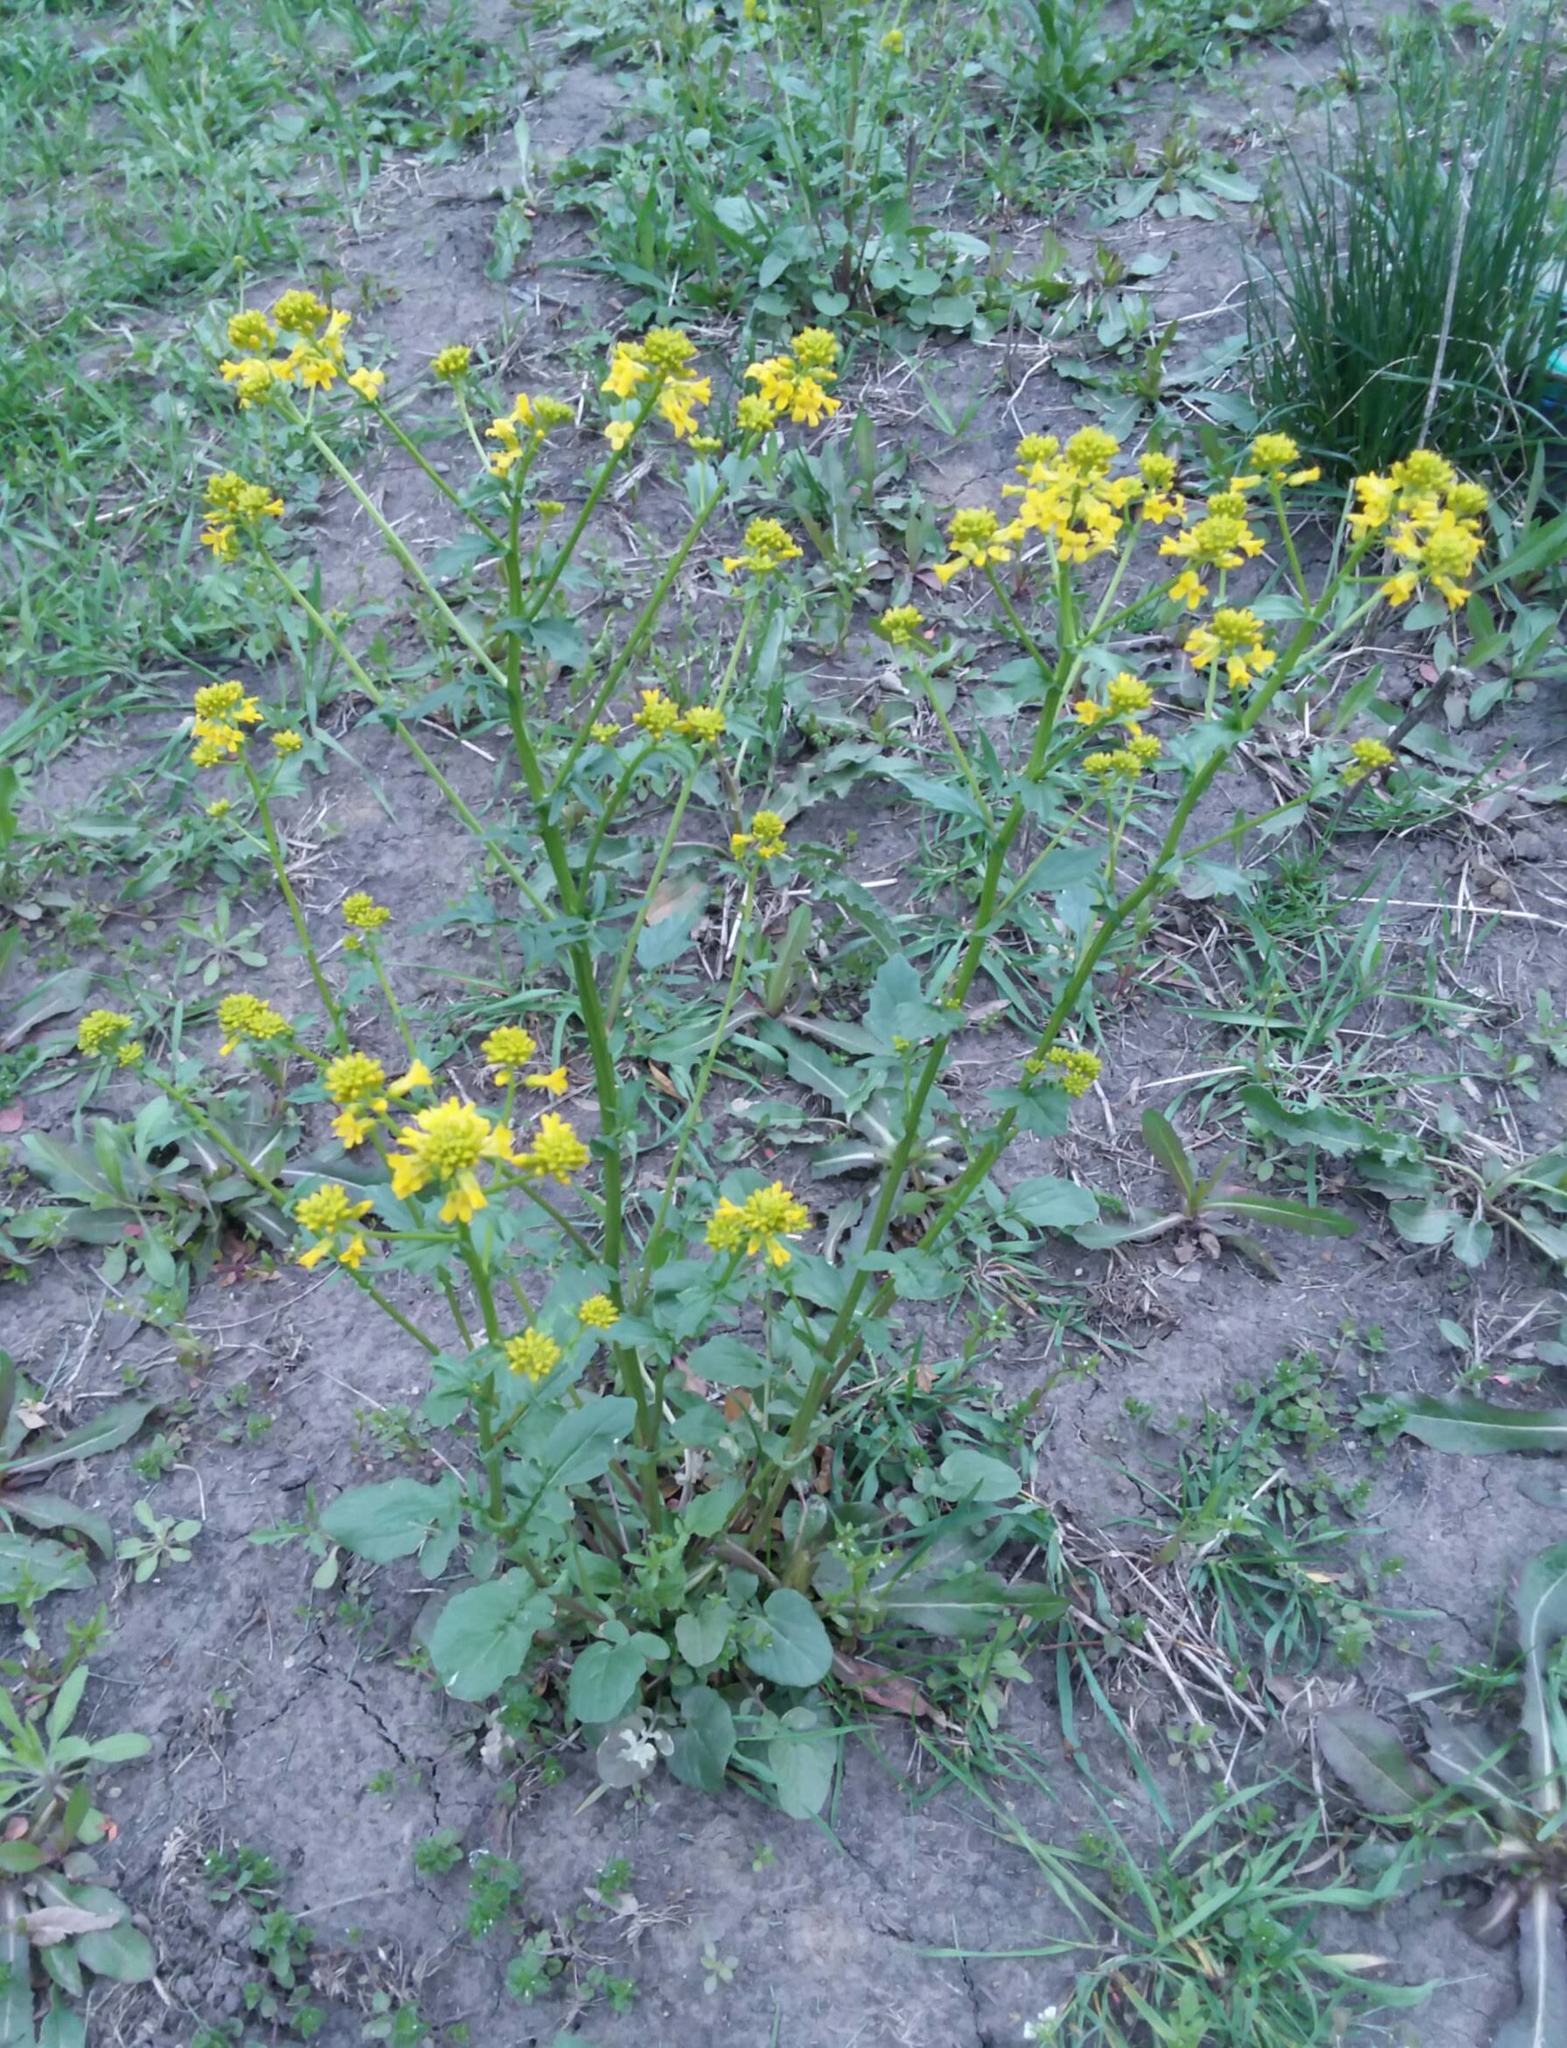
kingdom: Plantae
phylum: Tracheophyta
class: Magnoliopsida
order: Brassicales
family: Brassicaceae
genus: Barbarea
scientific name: Barbarea vulgaris
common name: Cressy-greens
